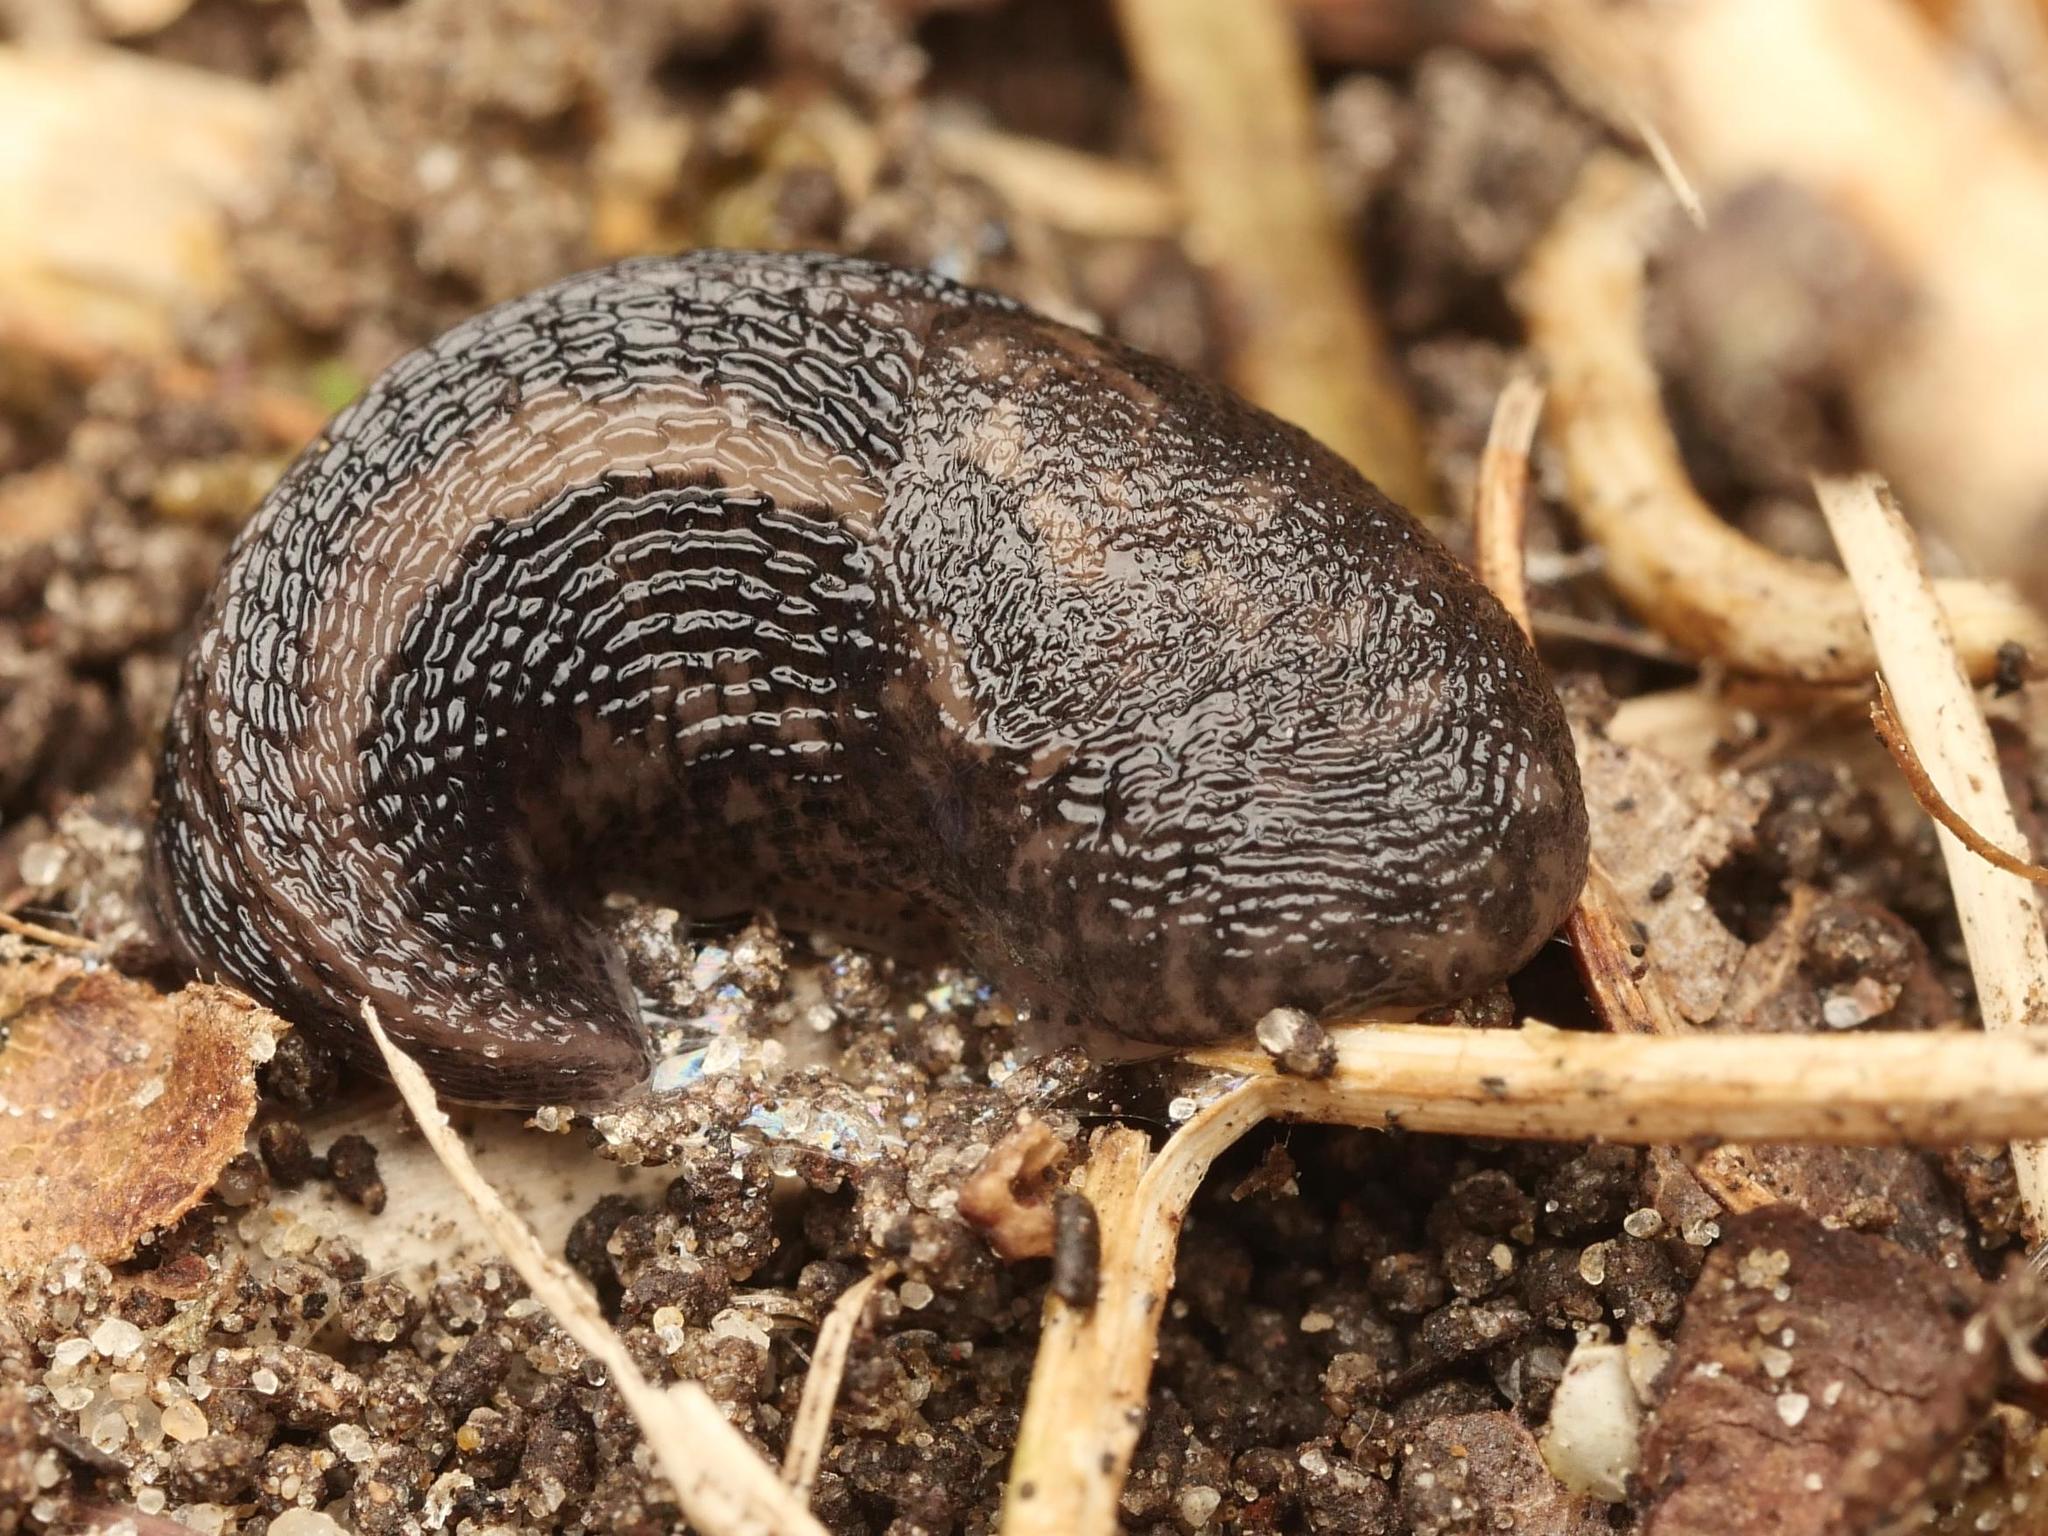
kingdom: Animalia
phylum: Mollusca
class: Gastropoda
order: Stylommatophora
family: Limacidae
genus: Limax
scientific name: Limax maximus
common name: Great grey slug
